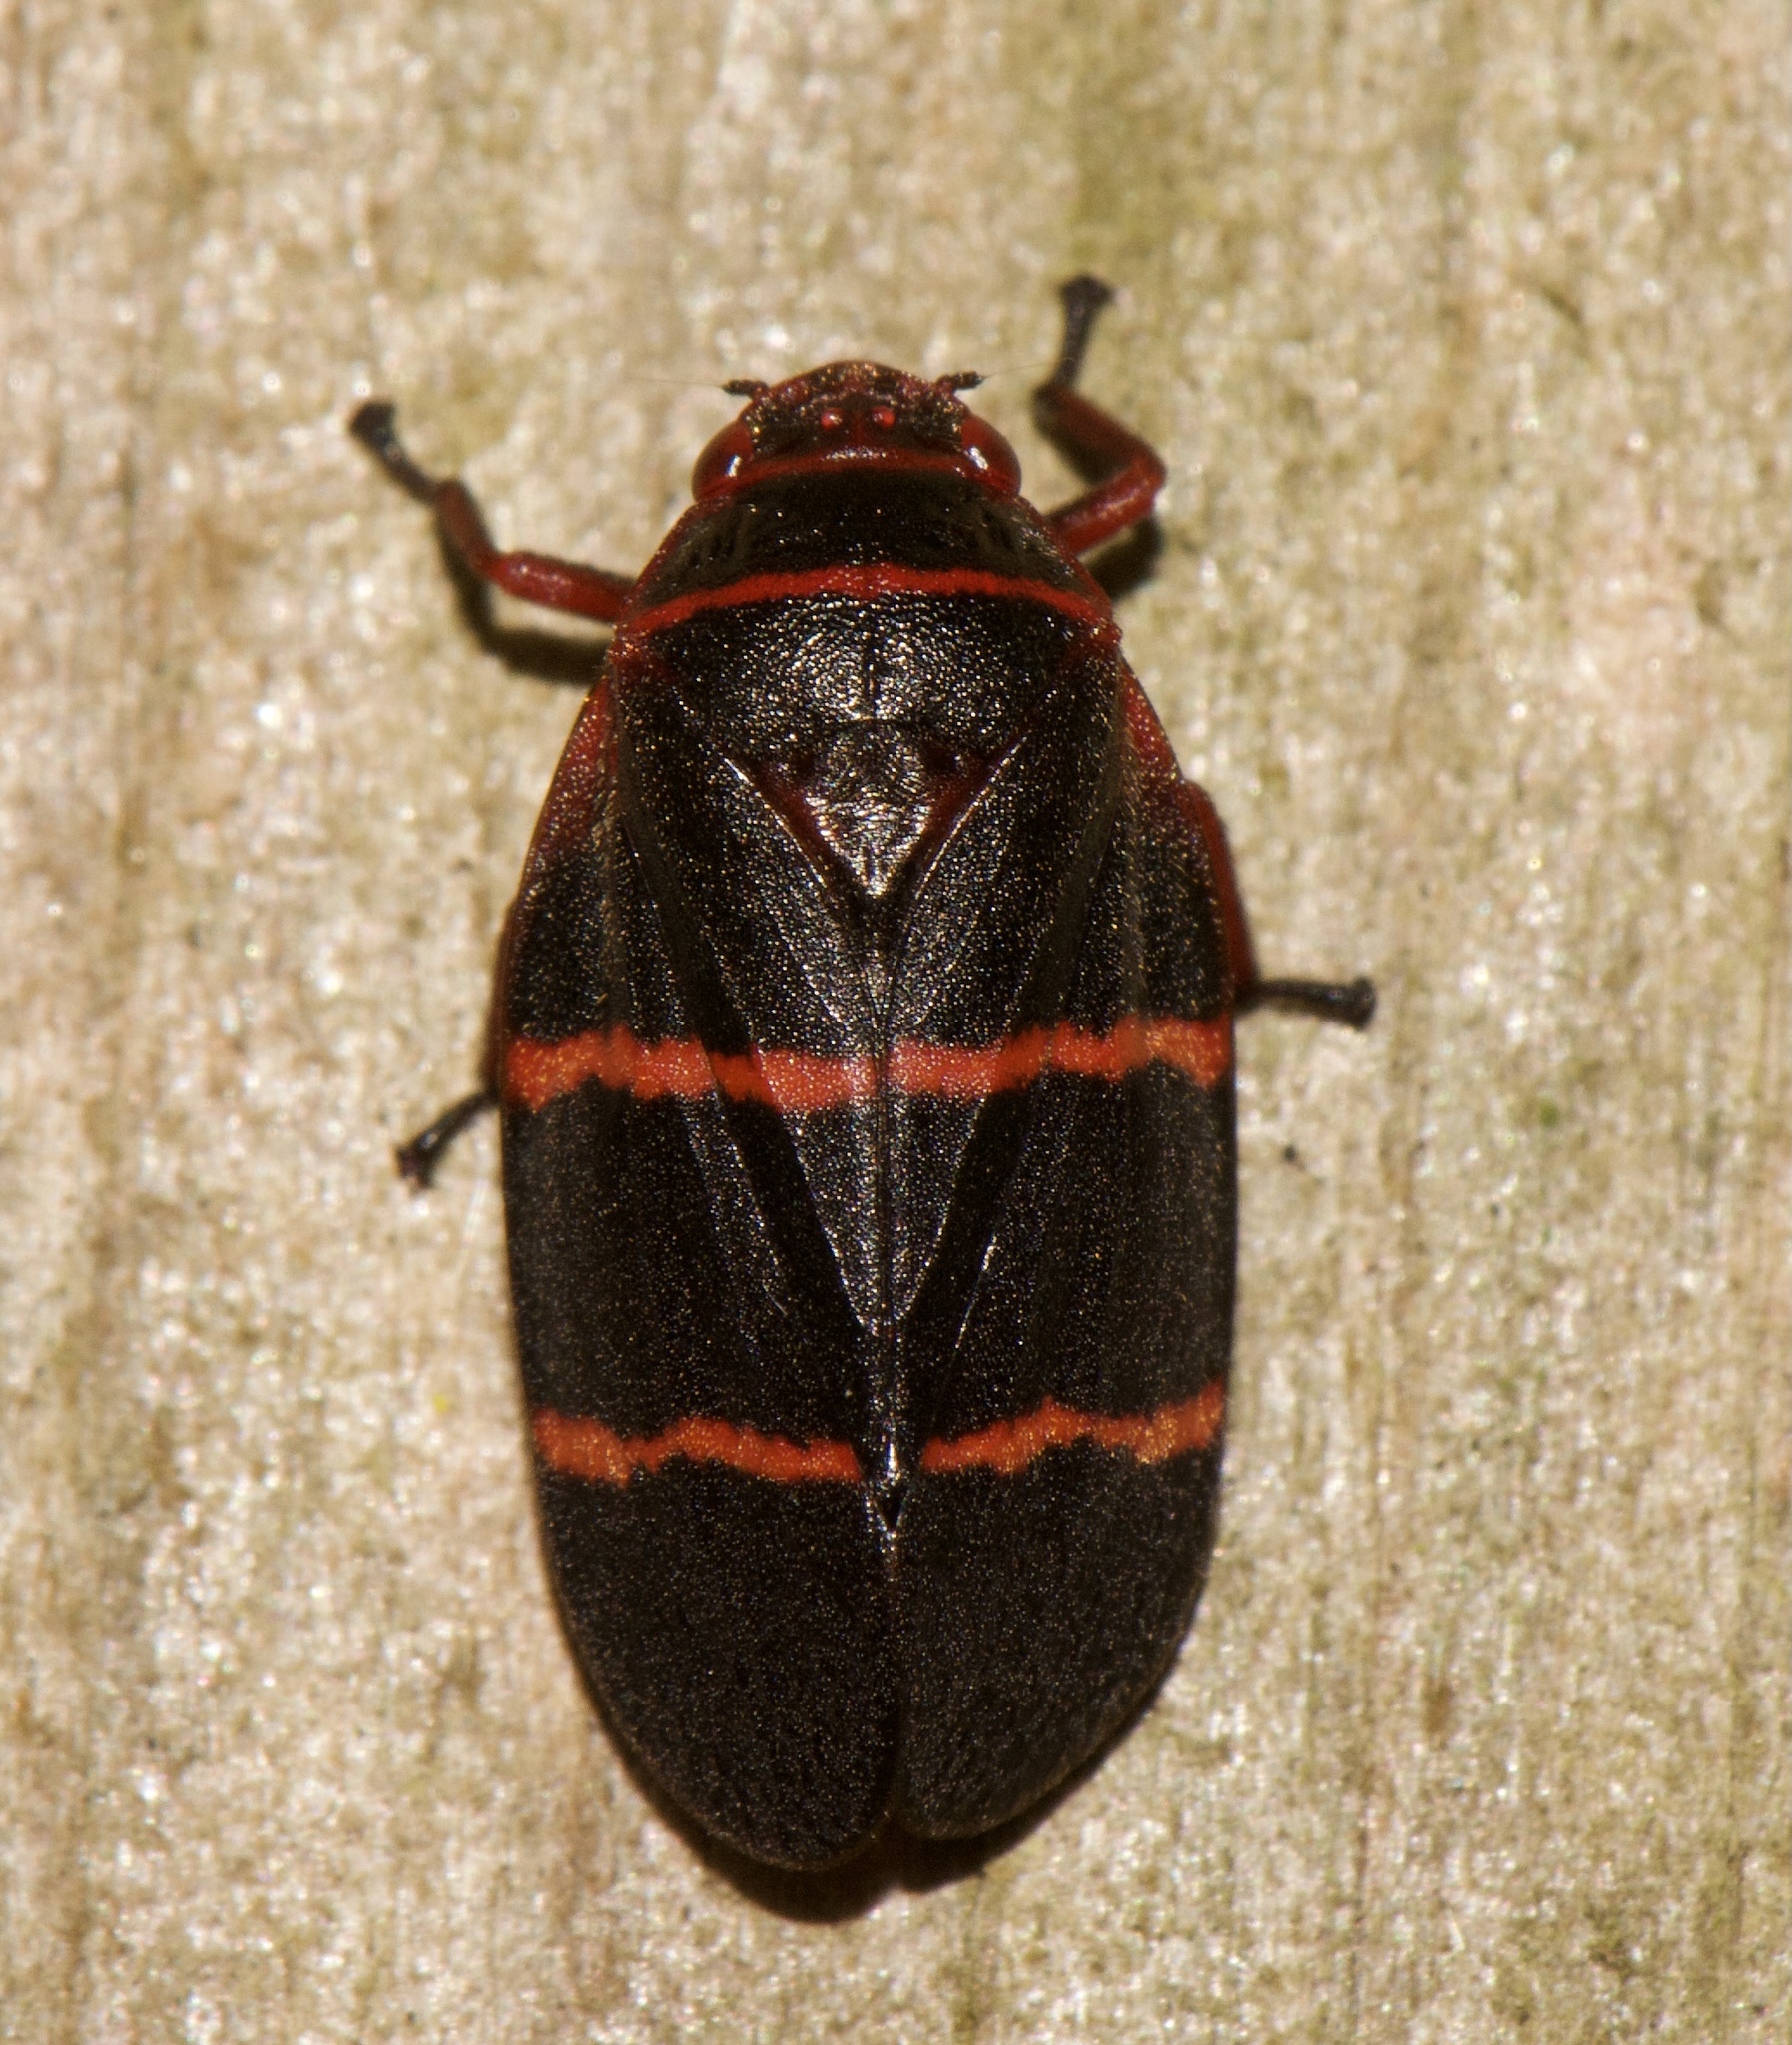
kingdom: Animalia
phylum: Arthropoda
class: Insecta
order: Hemiptera
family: Cercopidae
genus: Prosapia
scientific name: Prosapia bicincta
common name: Twolined spittlebug
